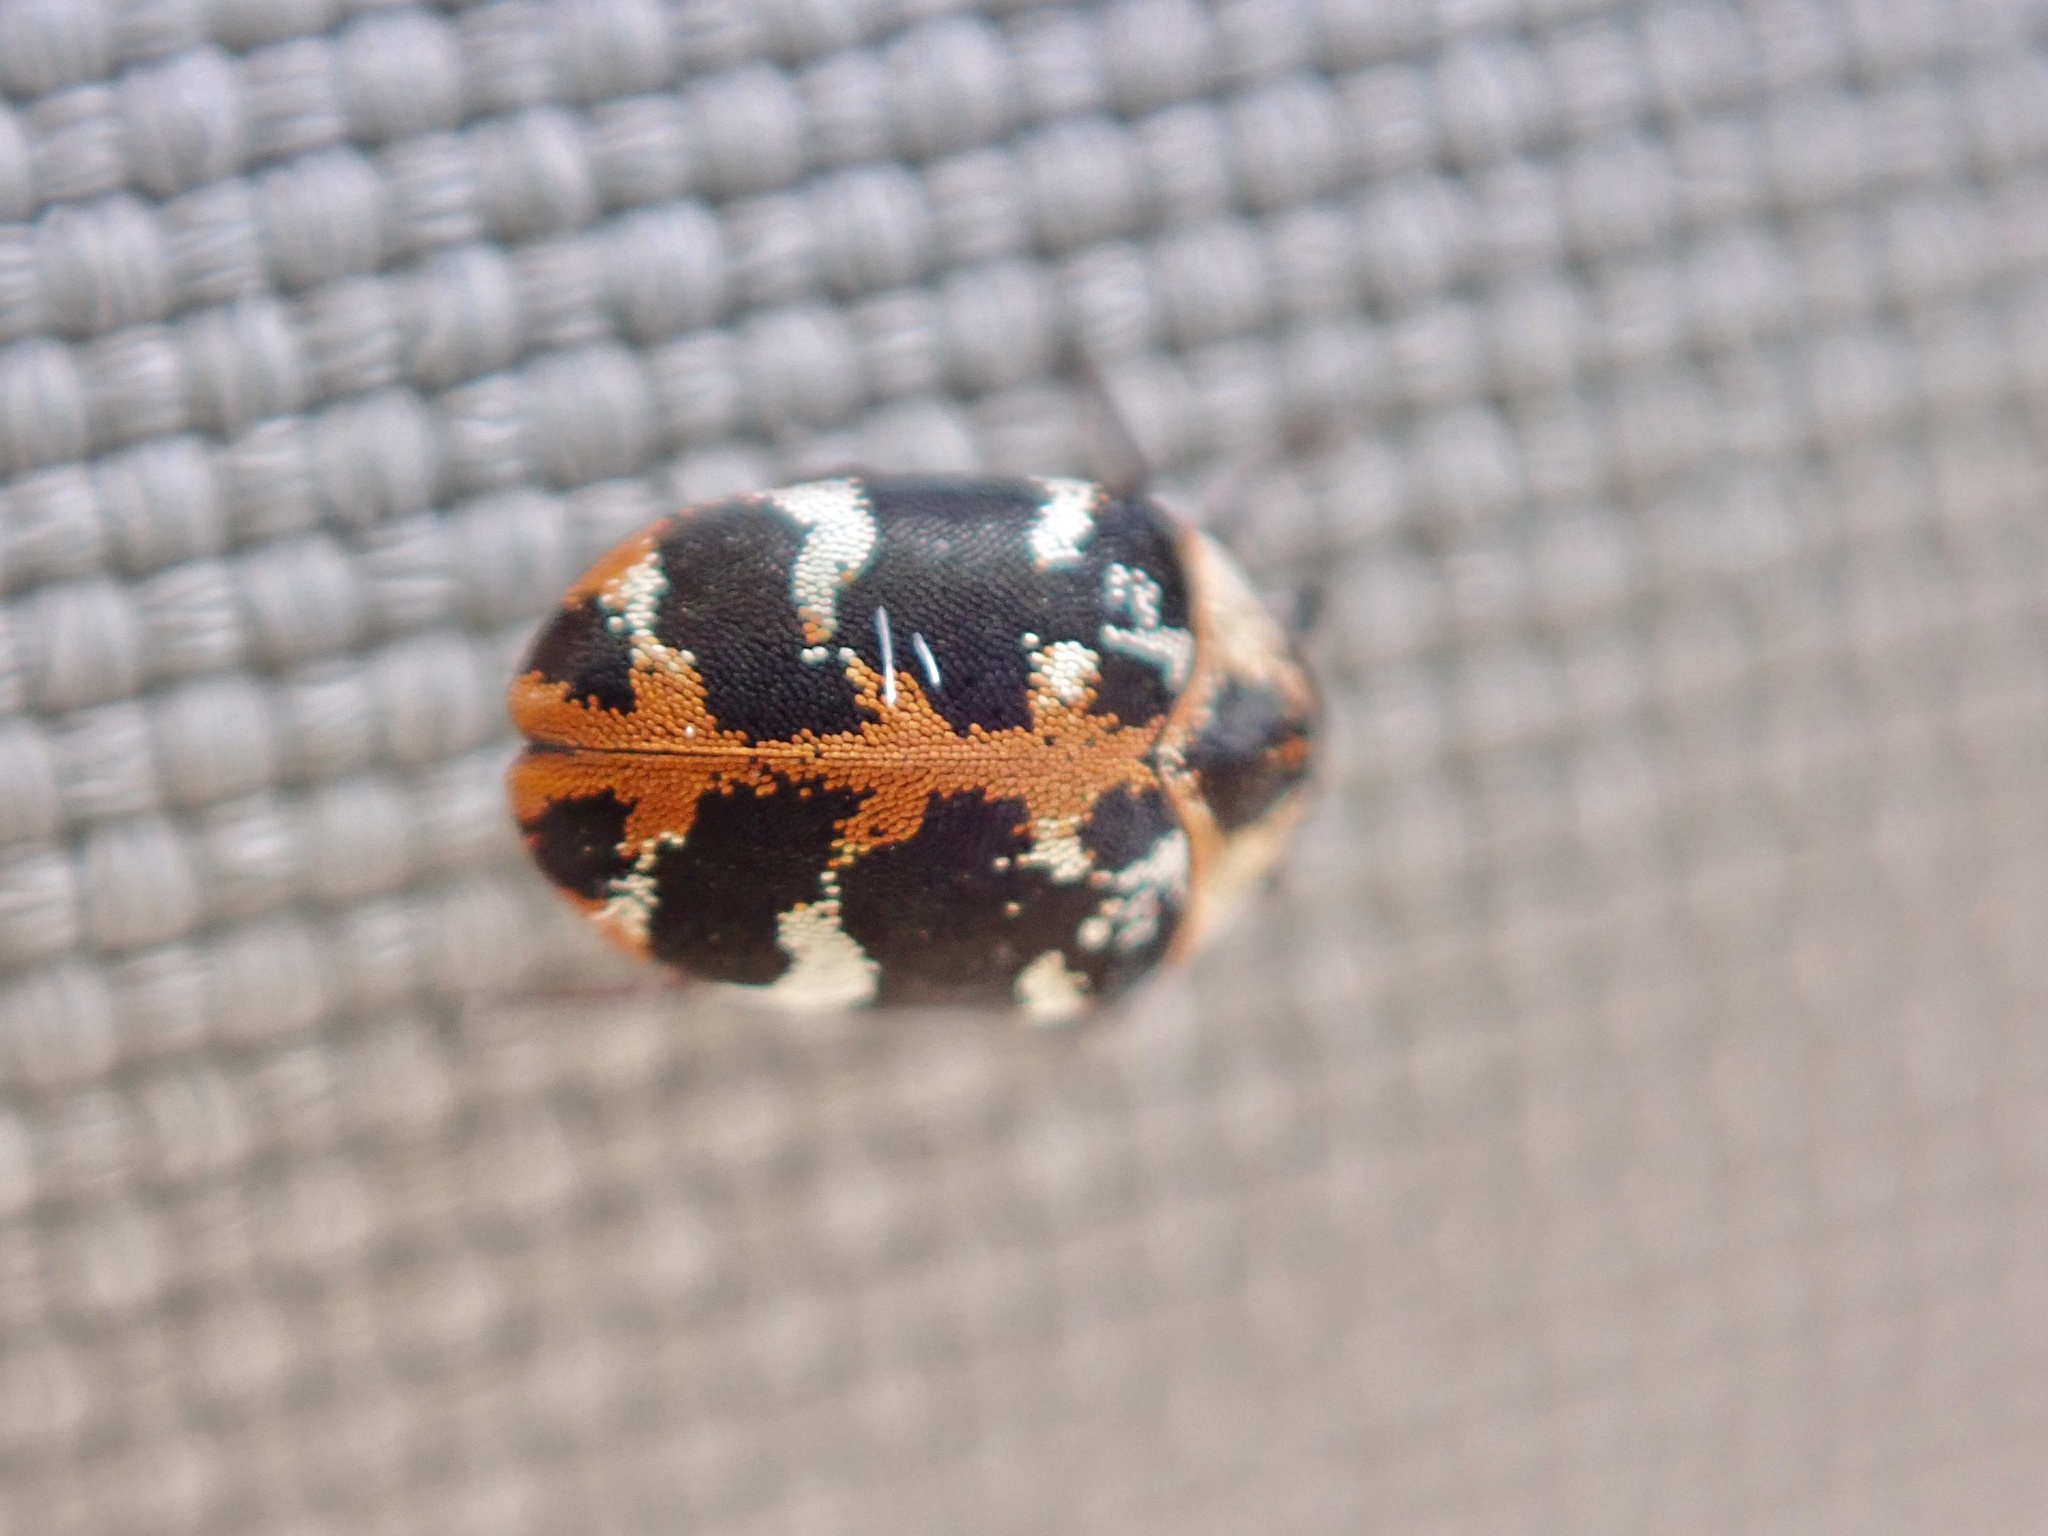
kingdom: Animalia
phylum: Arthropoda
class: Insecta
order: Coleoptera
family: Dermestidae
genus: Anthrenus
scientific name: Anthrenus scrophulariae
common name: Buffalo carpet beetle
